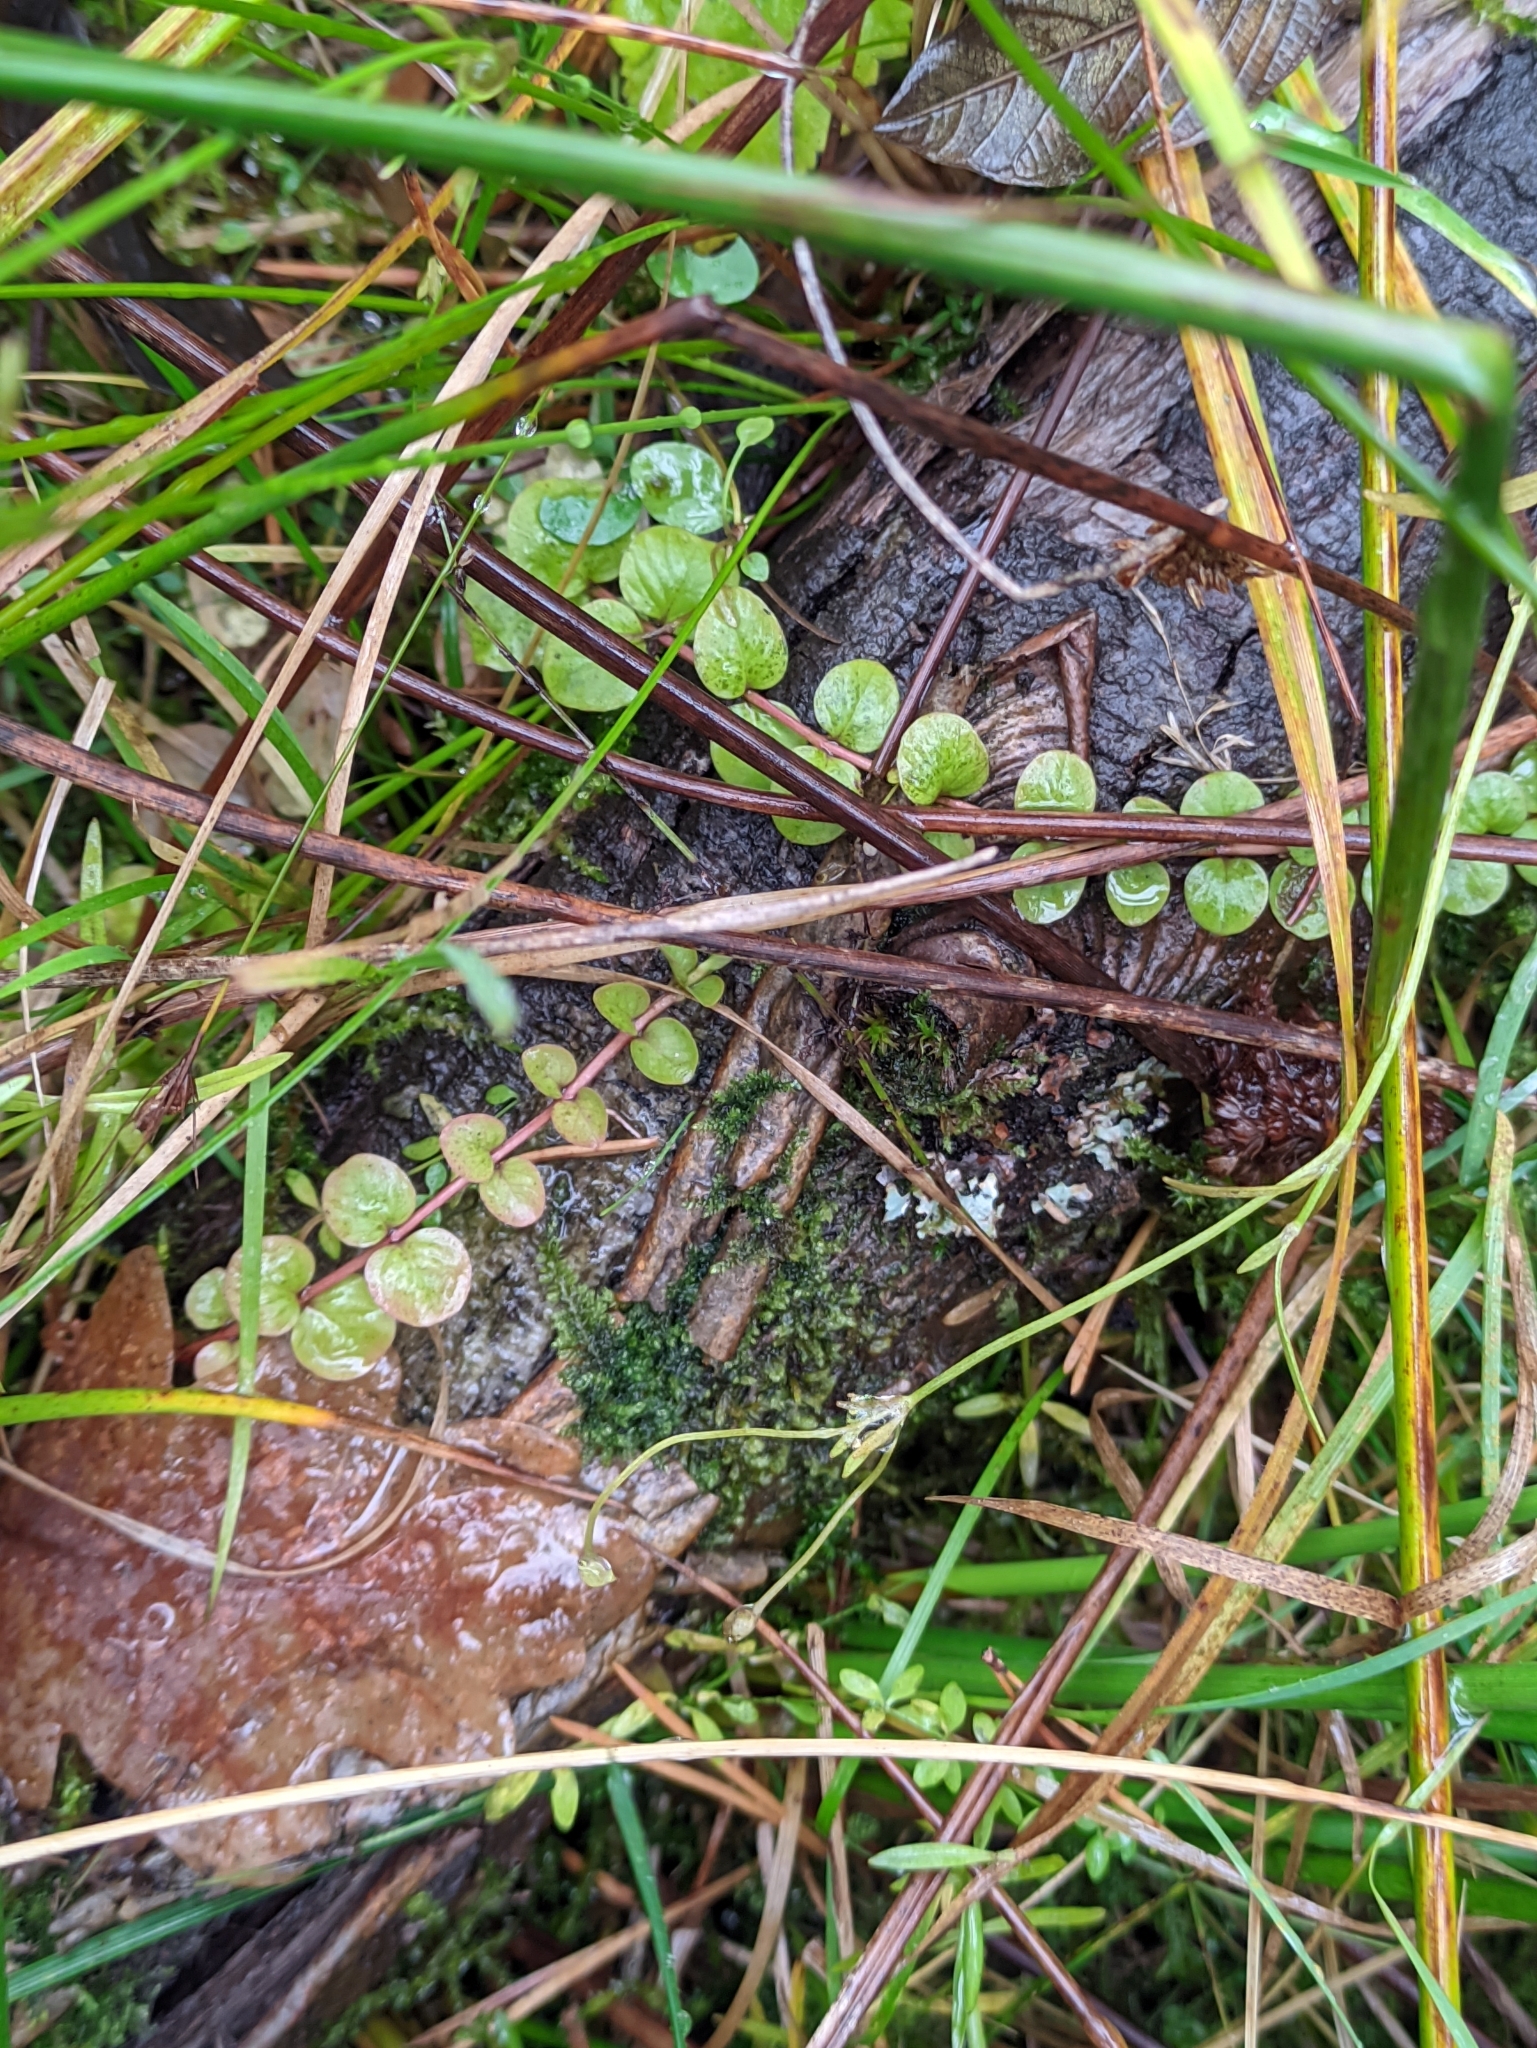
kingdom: Plantae
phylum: Tracheophyta
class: Magnoliopsida
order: Ericales
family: Primulaceae
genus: Lysimachia
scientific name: Lysimachia nummularia
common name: Moneywort
